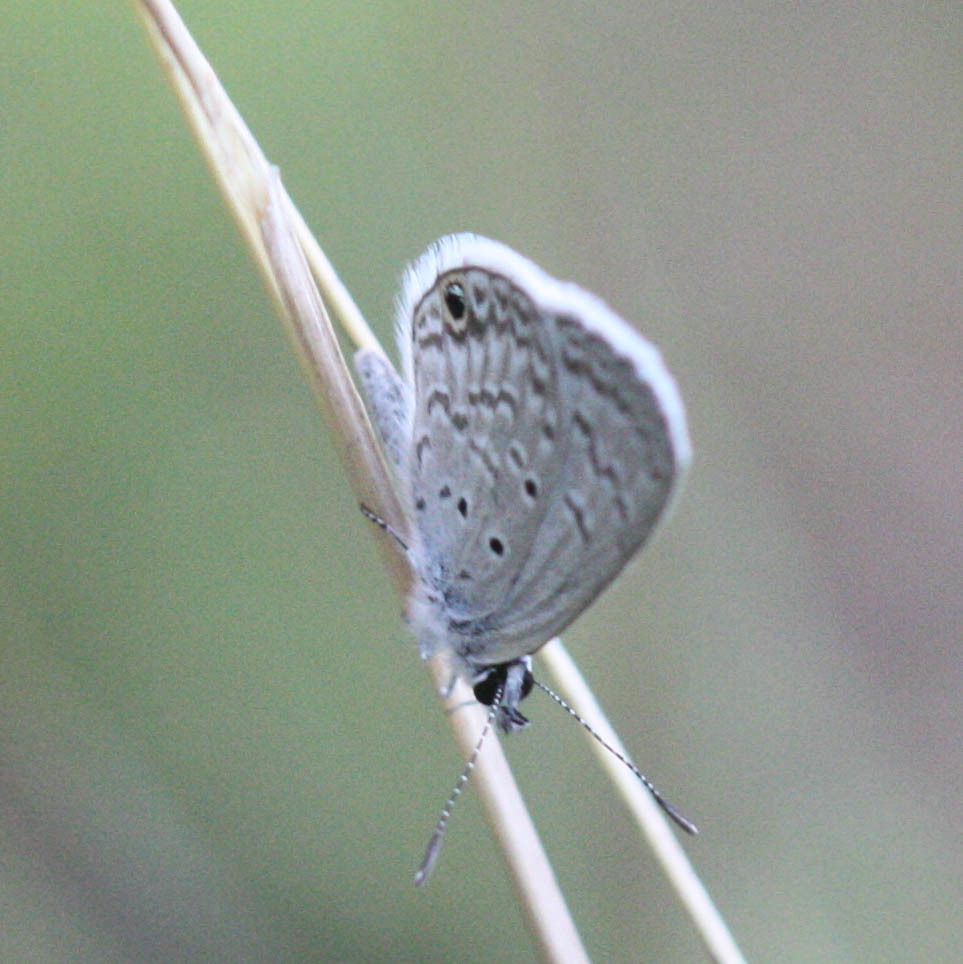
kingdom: Animalia
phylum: Arthropoda
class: Insecta
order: Lepidoptera
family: Lycaenidae
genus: Hemiargus
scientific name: Hemiargus ceraunus
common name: Ceraunus blue
